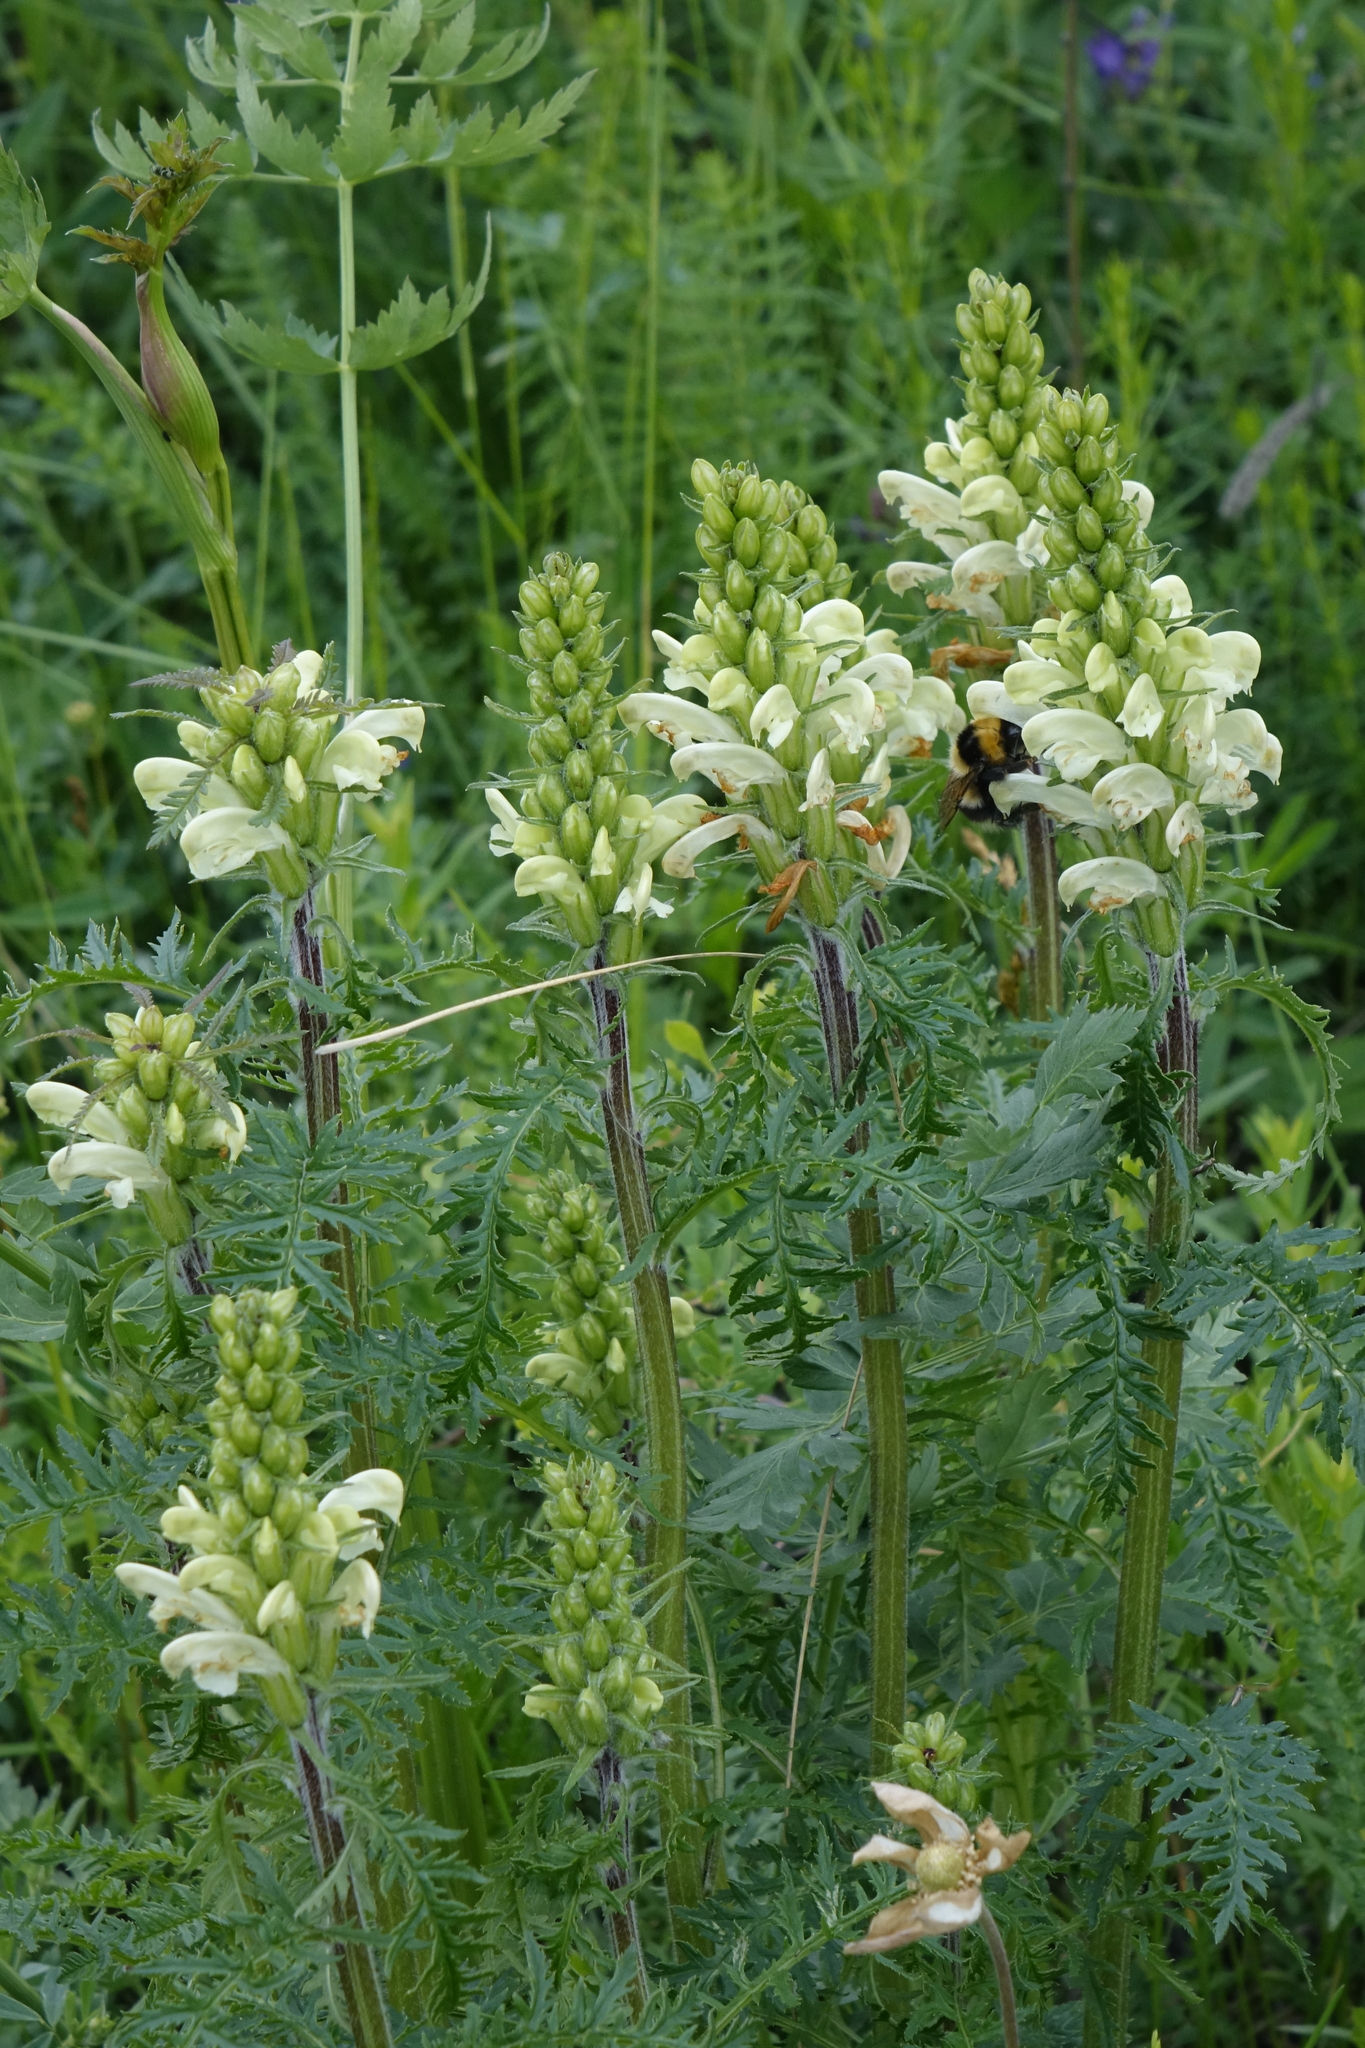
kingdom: Plantae
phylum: Tracheophyta
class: Magnoliopsida
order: Lamiales
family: Orobanchaceae
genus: Pedicularis
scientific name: Pedicularis sibirica
